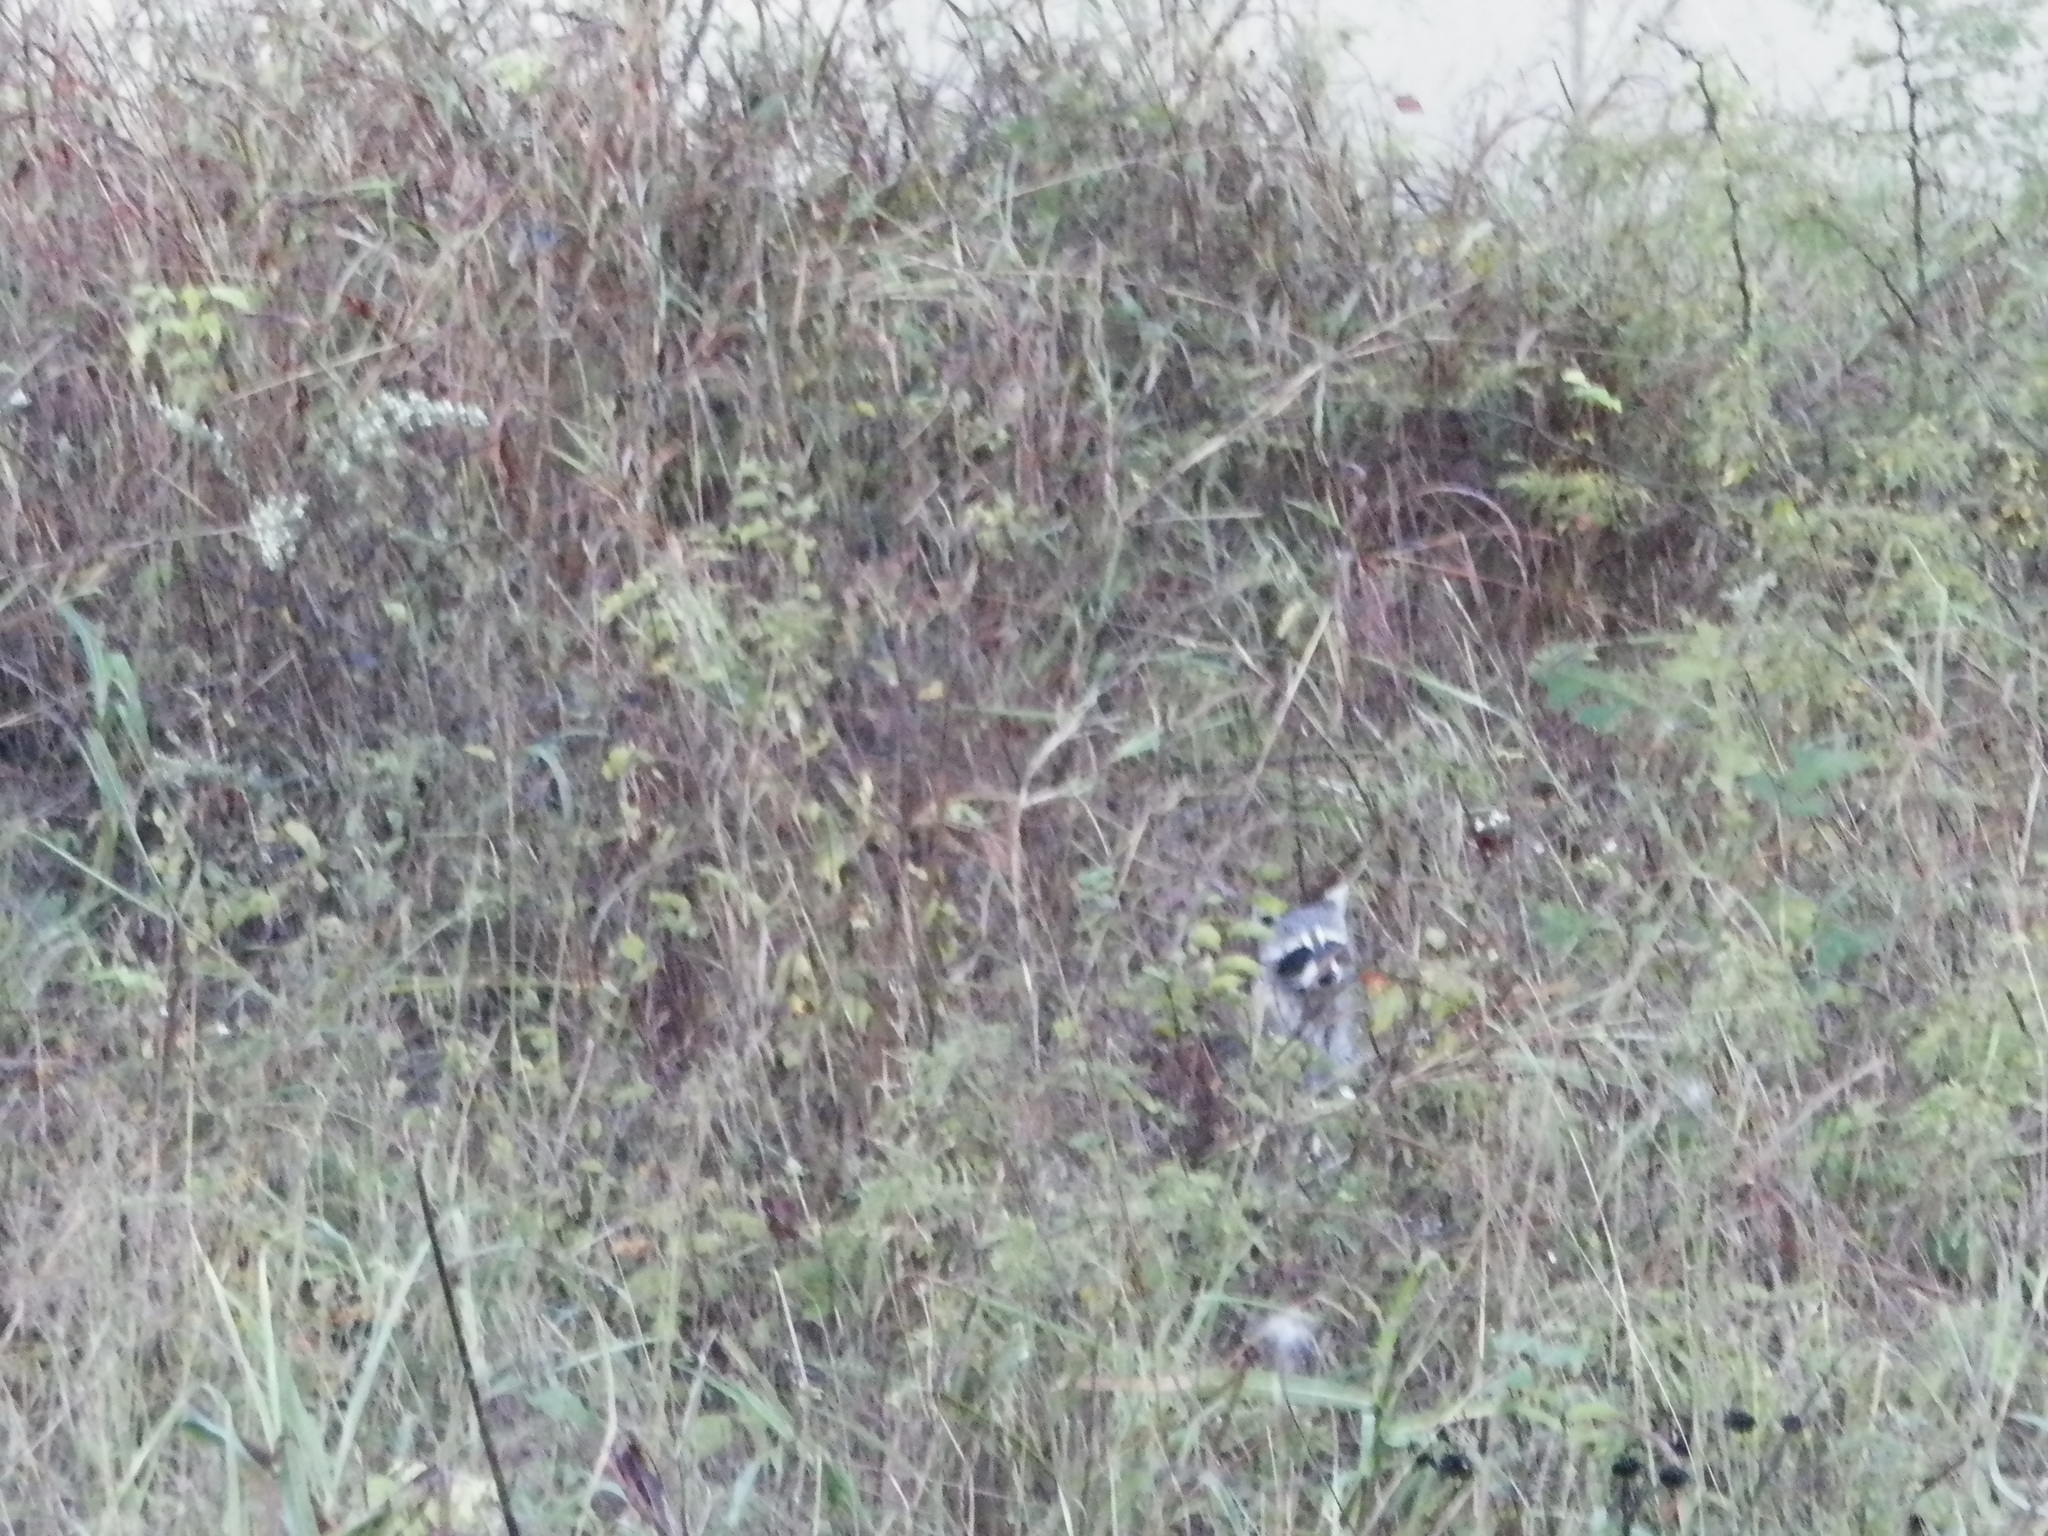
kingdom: Animalia
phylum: Chordata
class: Mammalia
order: Carnivora
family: Procyonidae
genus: Procyon
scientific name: Procyon lotor
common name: Raccoon
